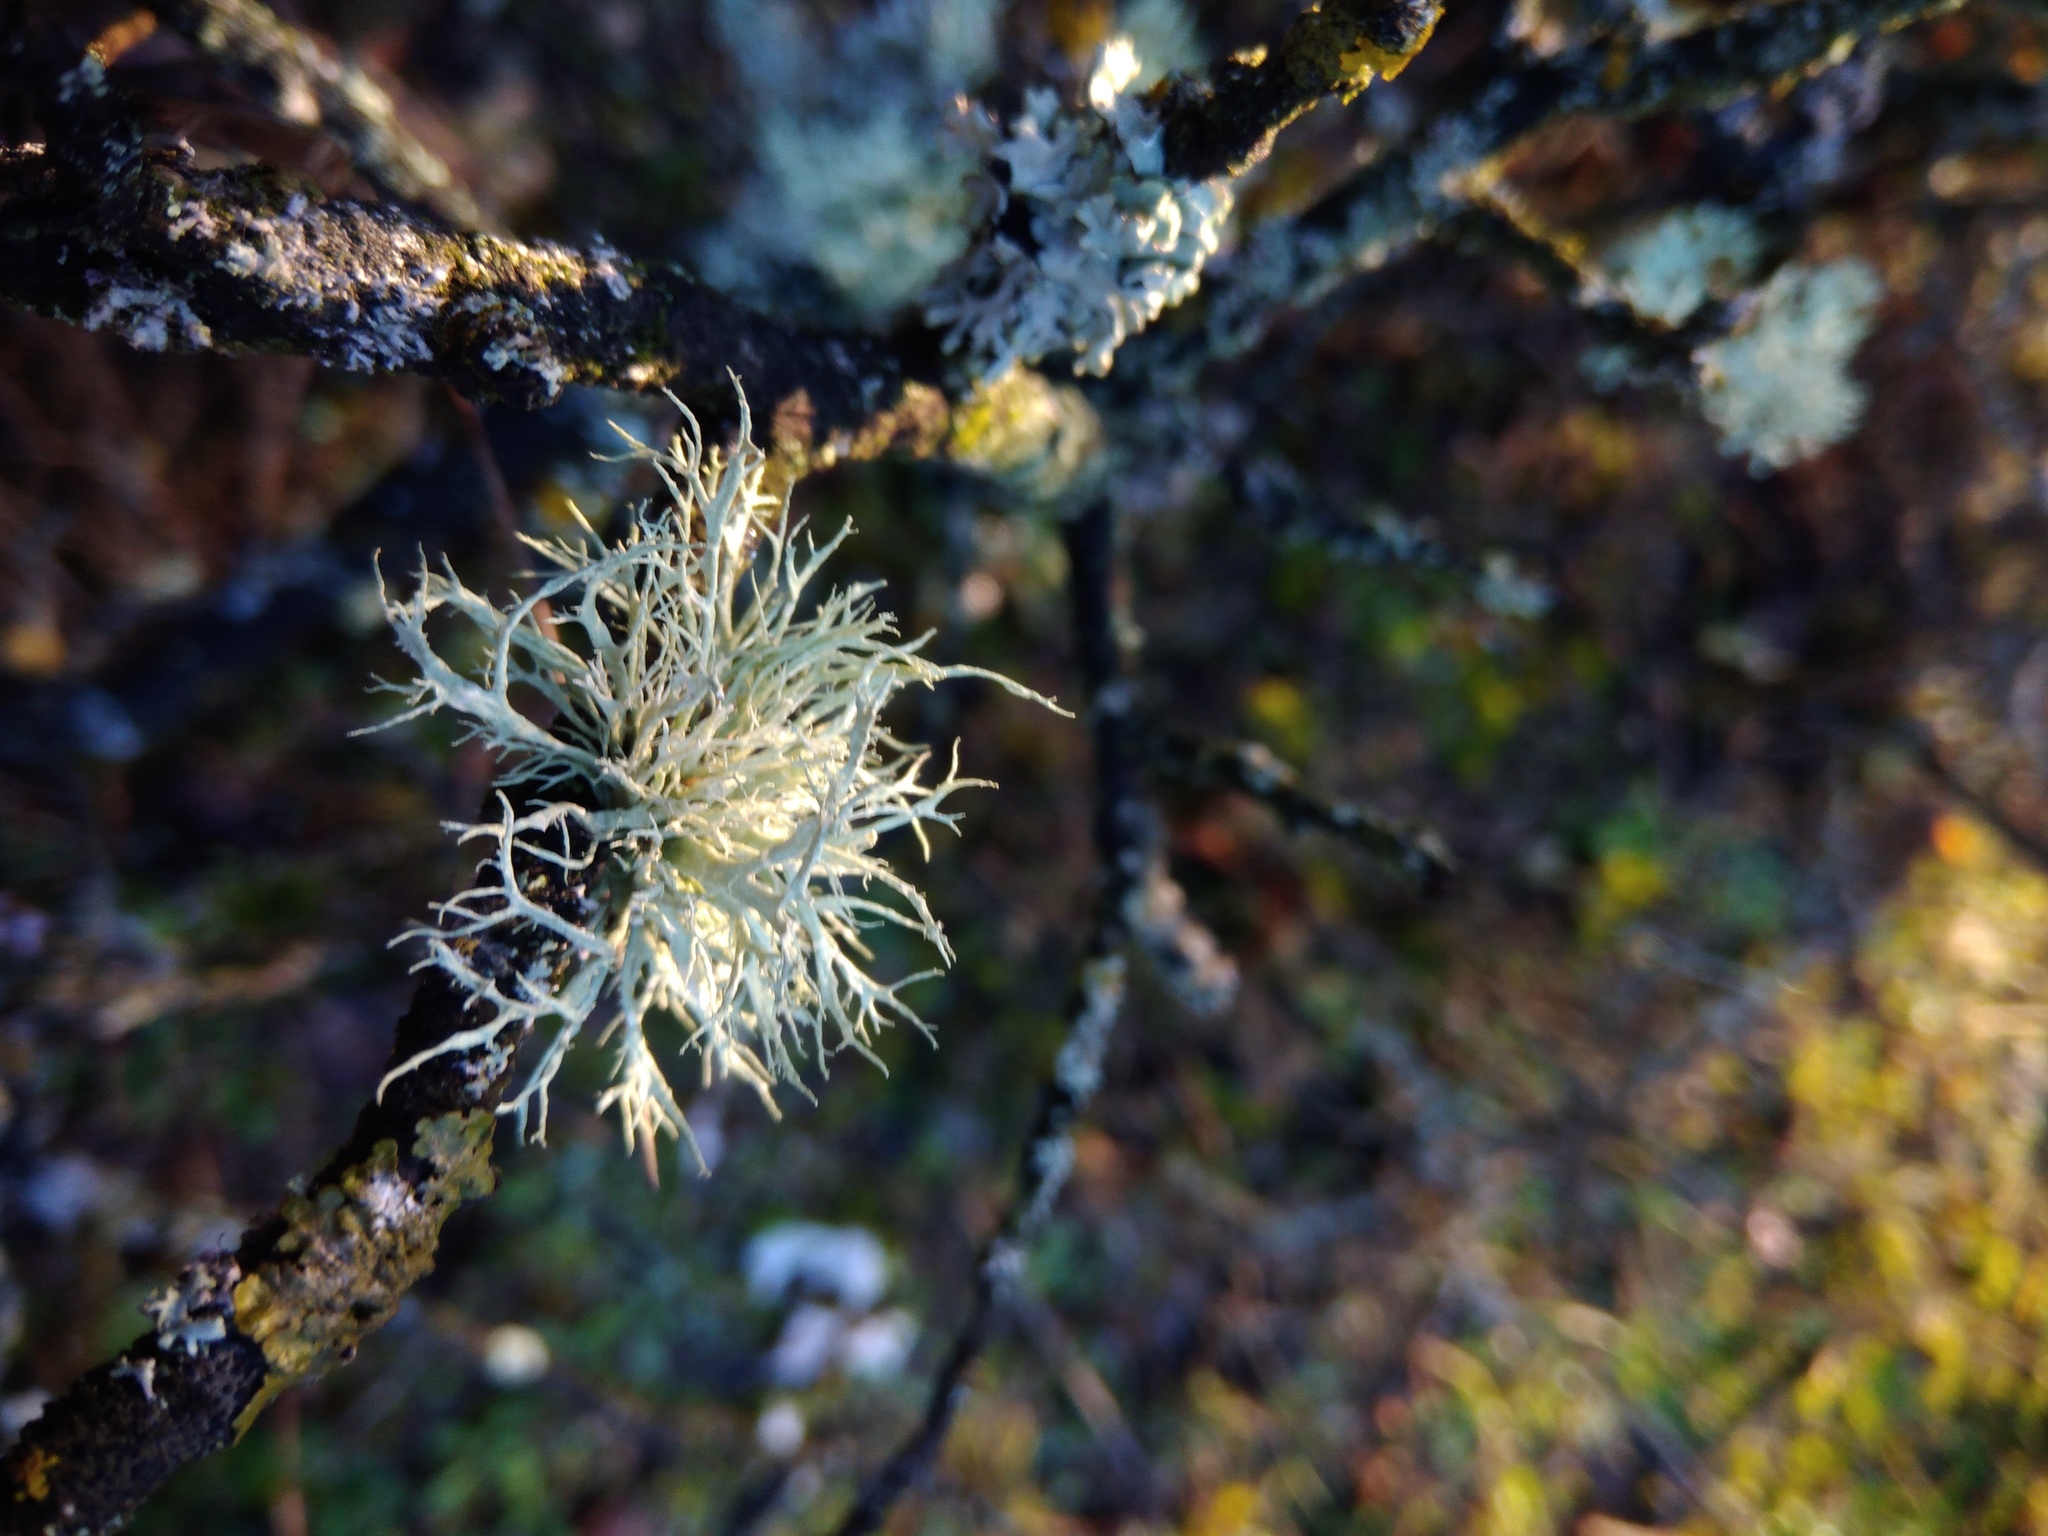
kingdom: Fungi
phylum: Ascomycota
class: Lecanoromycetes
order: Lecanorales
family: Ramalinaceae
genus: Ramalina
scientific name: Ramalina farinacea
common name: Farinose cartilage lichen
